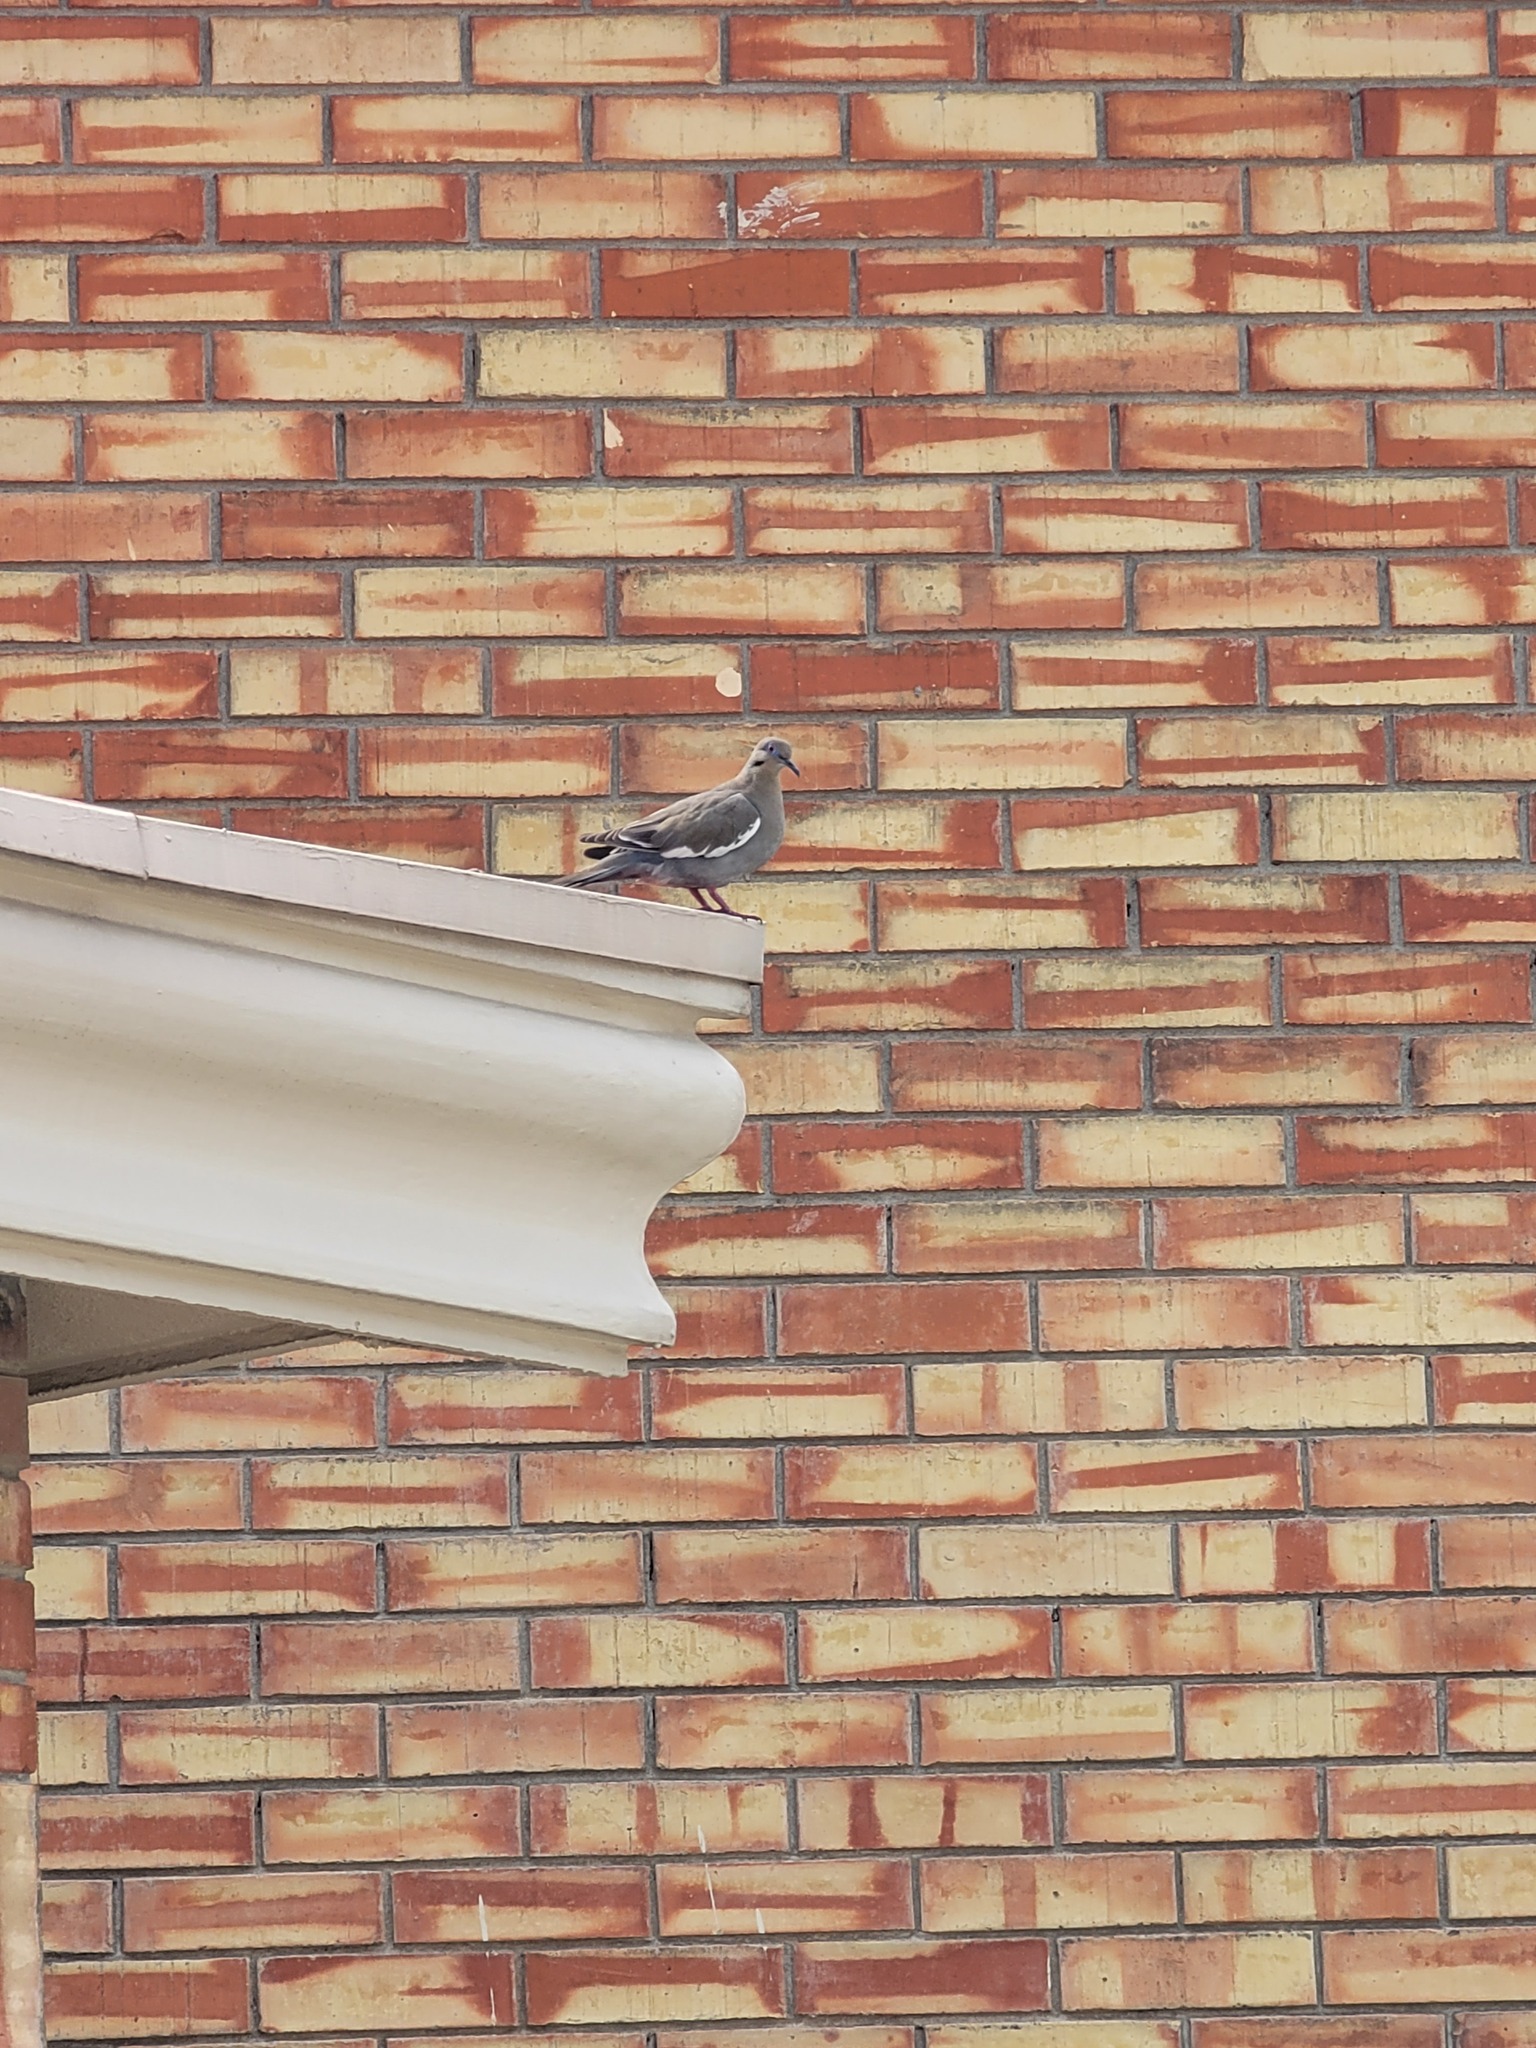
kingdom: Animalia
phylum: Chordata
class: Aves
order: Columbiformes
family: Columbidae
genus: Zenaida
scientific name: Zenaida asiatica
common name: White-winged dove
